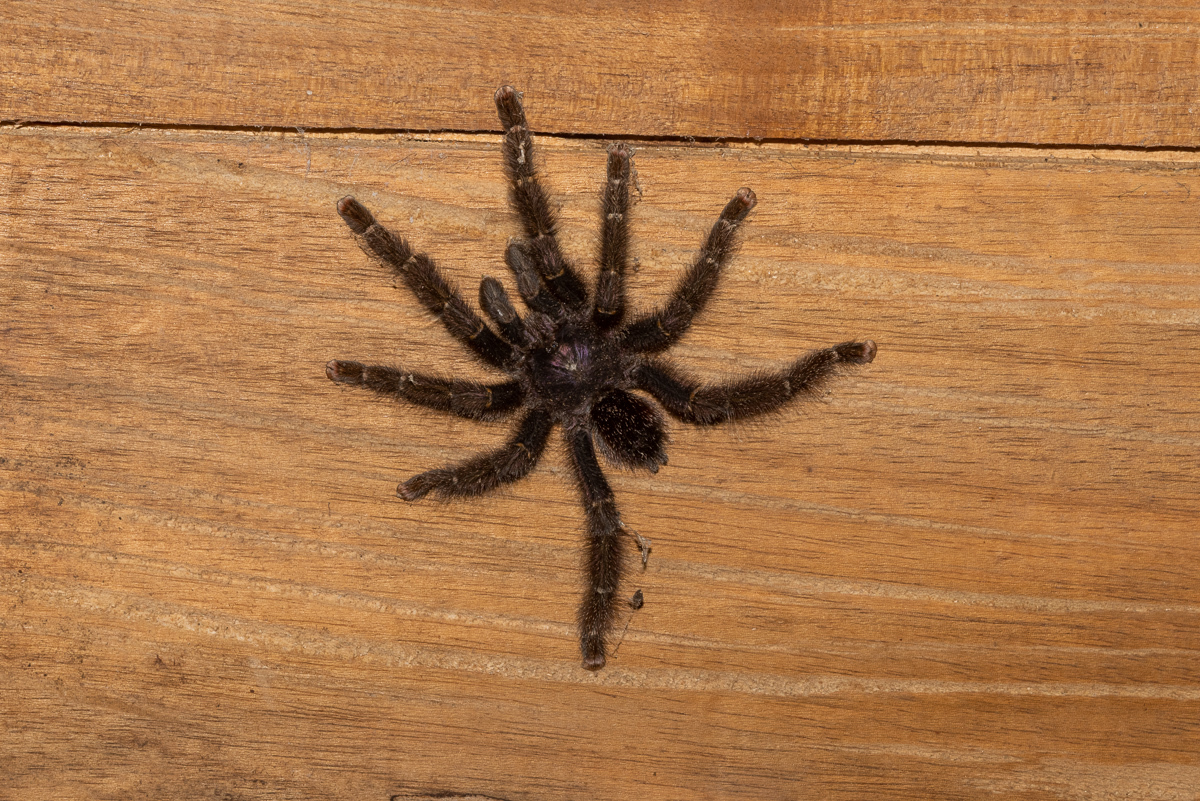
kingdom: Animalia
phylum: Arthropoda
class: Arachnida
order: Araneae
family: Theraphosidae
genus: Avicularia
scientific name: Avicularia purpurea
